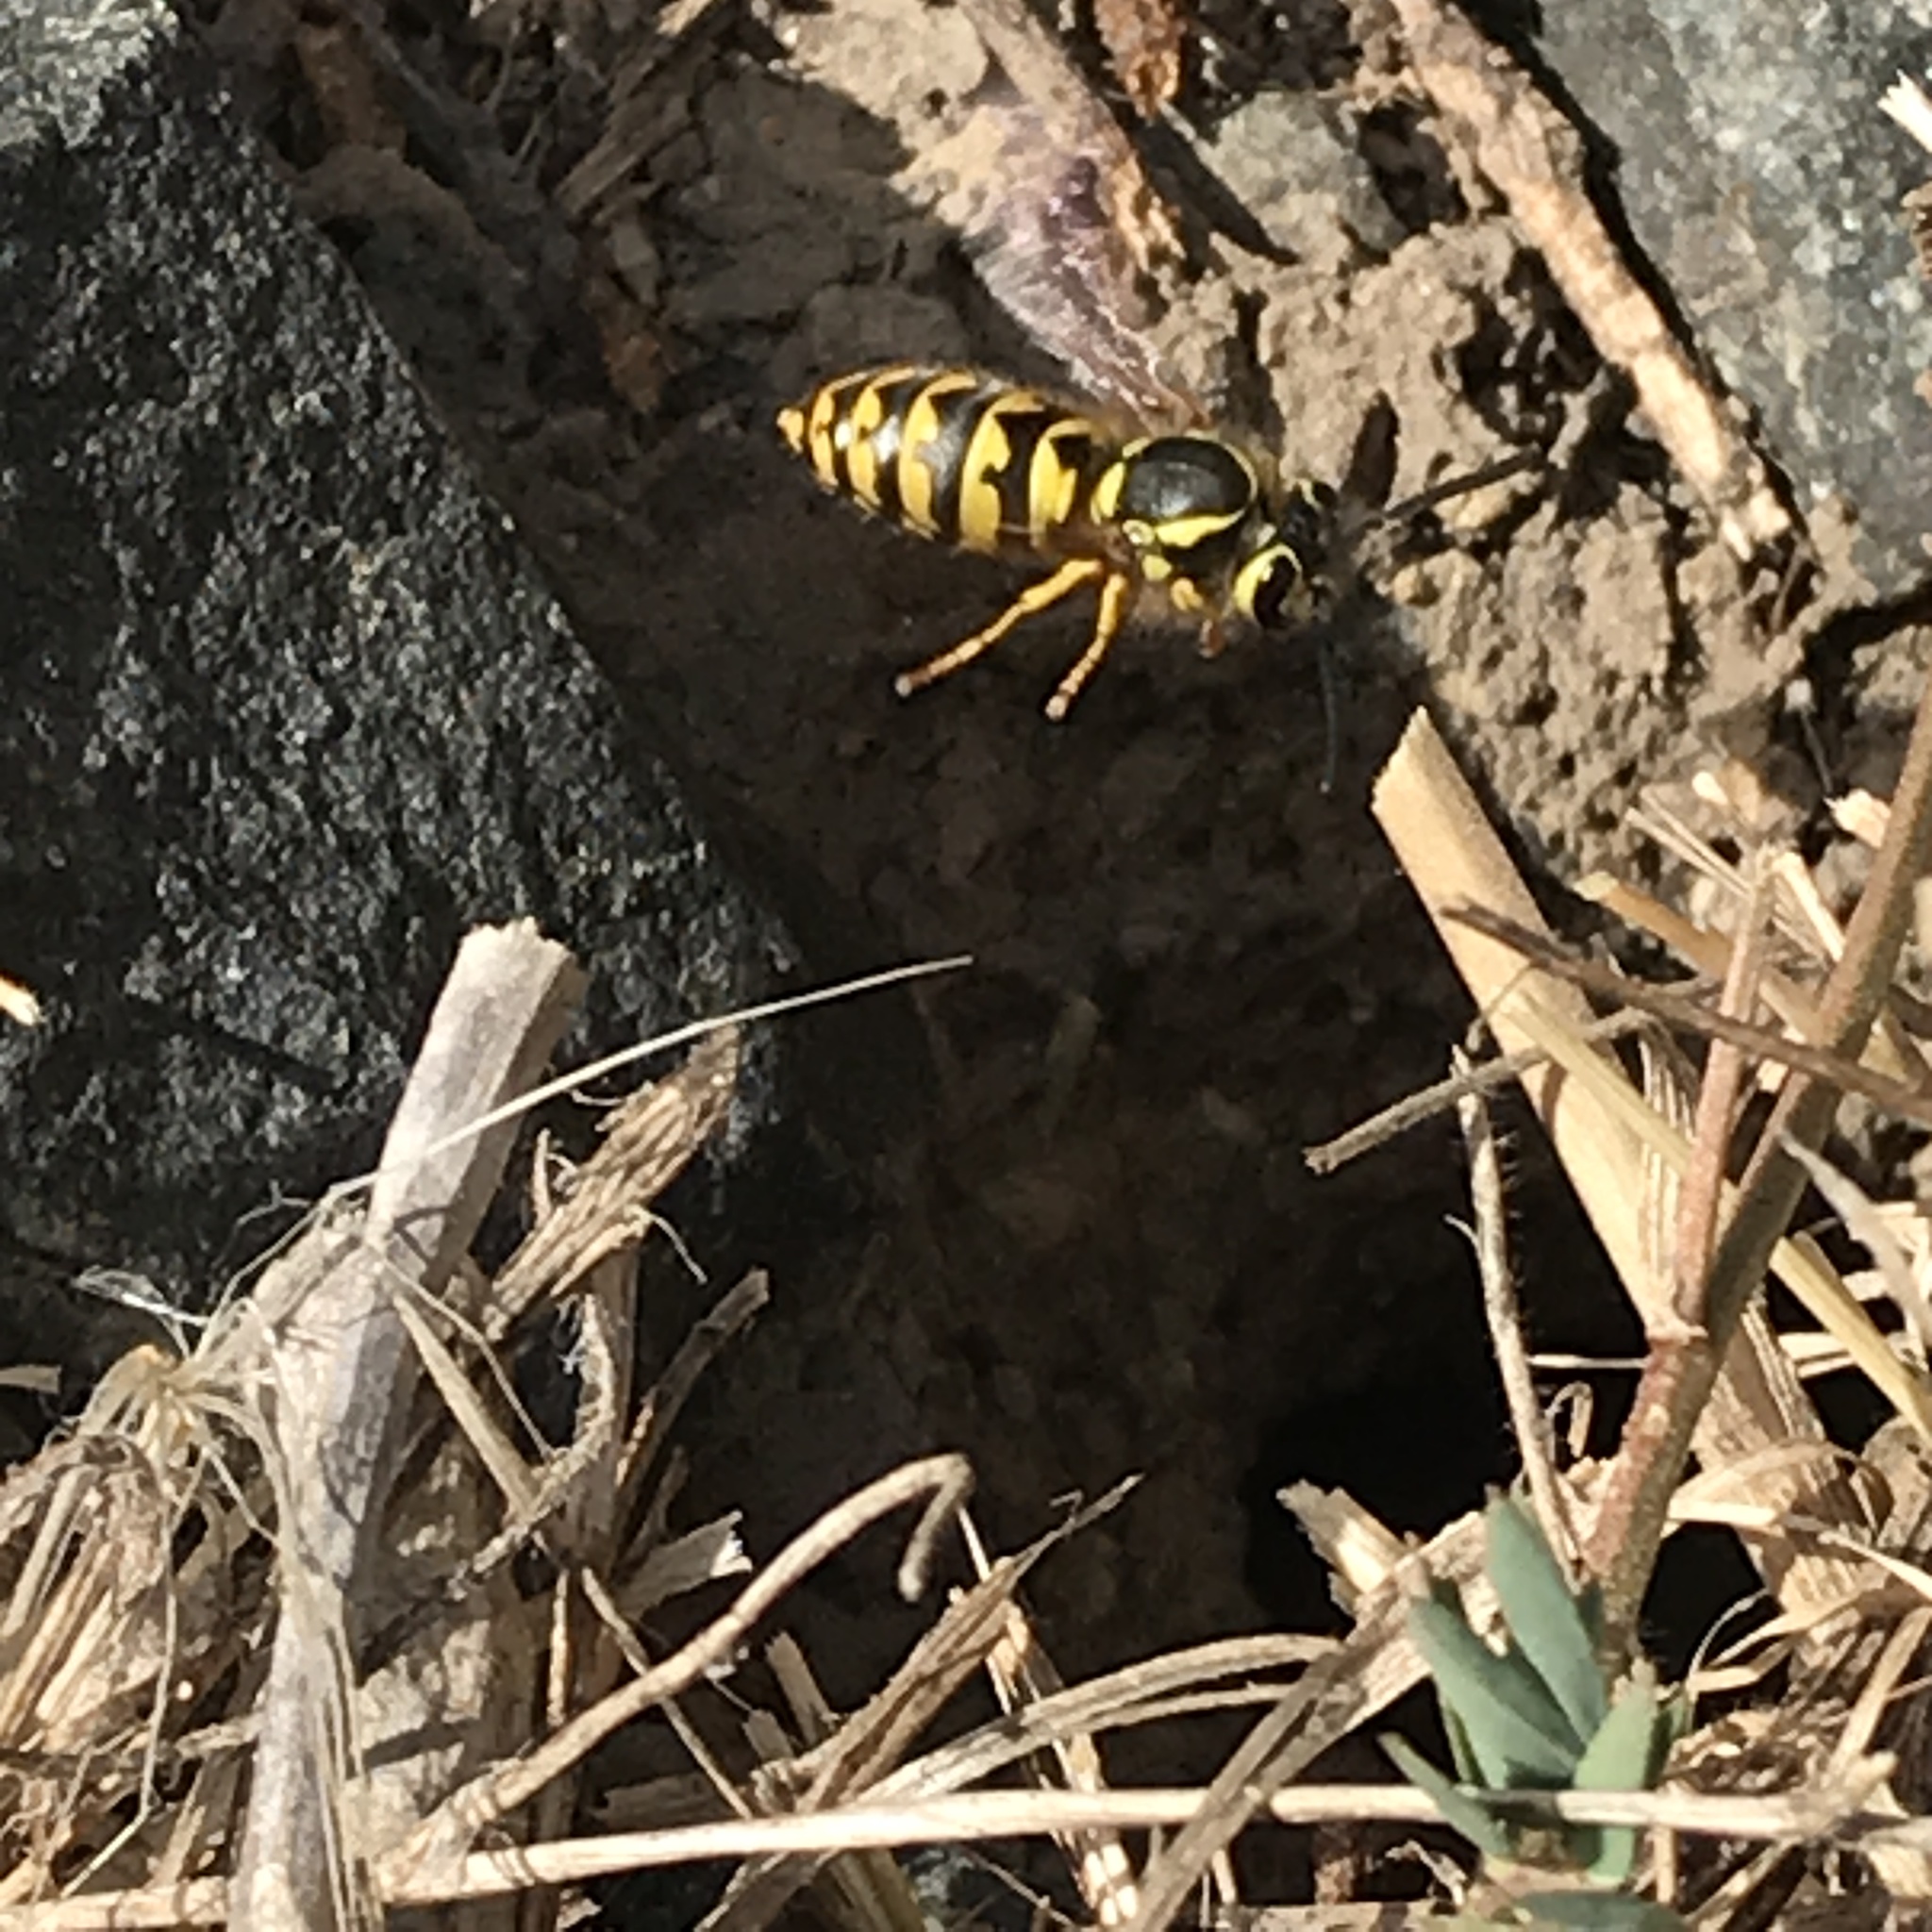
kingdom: Animalia
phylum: Arthropoda
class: Insecta
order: Hymenoptera
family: Vespidae
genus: Vespula
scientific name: Vespula pensylvanica
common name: Western yellowjacket
